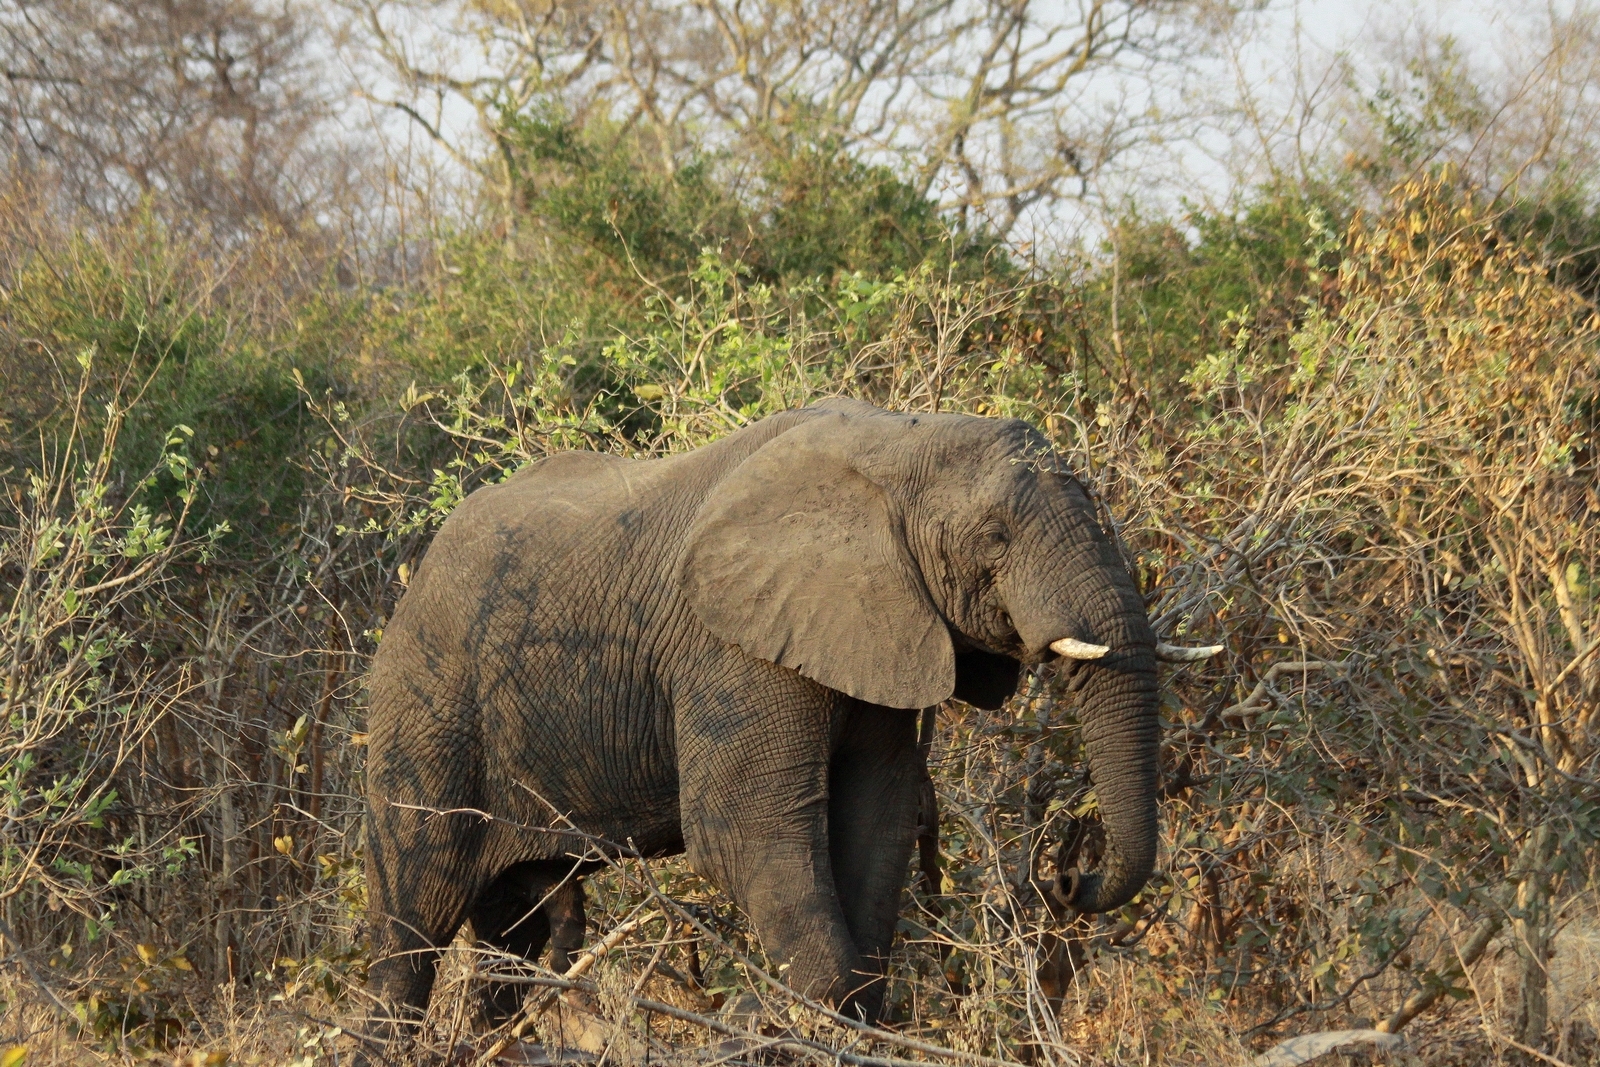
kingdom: Animalia
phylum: Chordata
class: Mammalia
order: Proboscidea
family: Elephantidae
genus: Loxodonta
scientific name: Loxodonta africana
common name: African elephant
